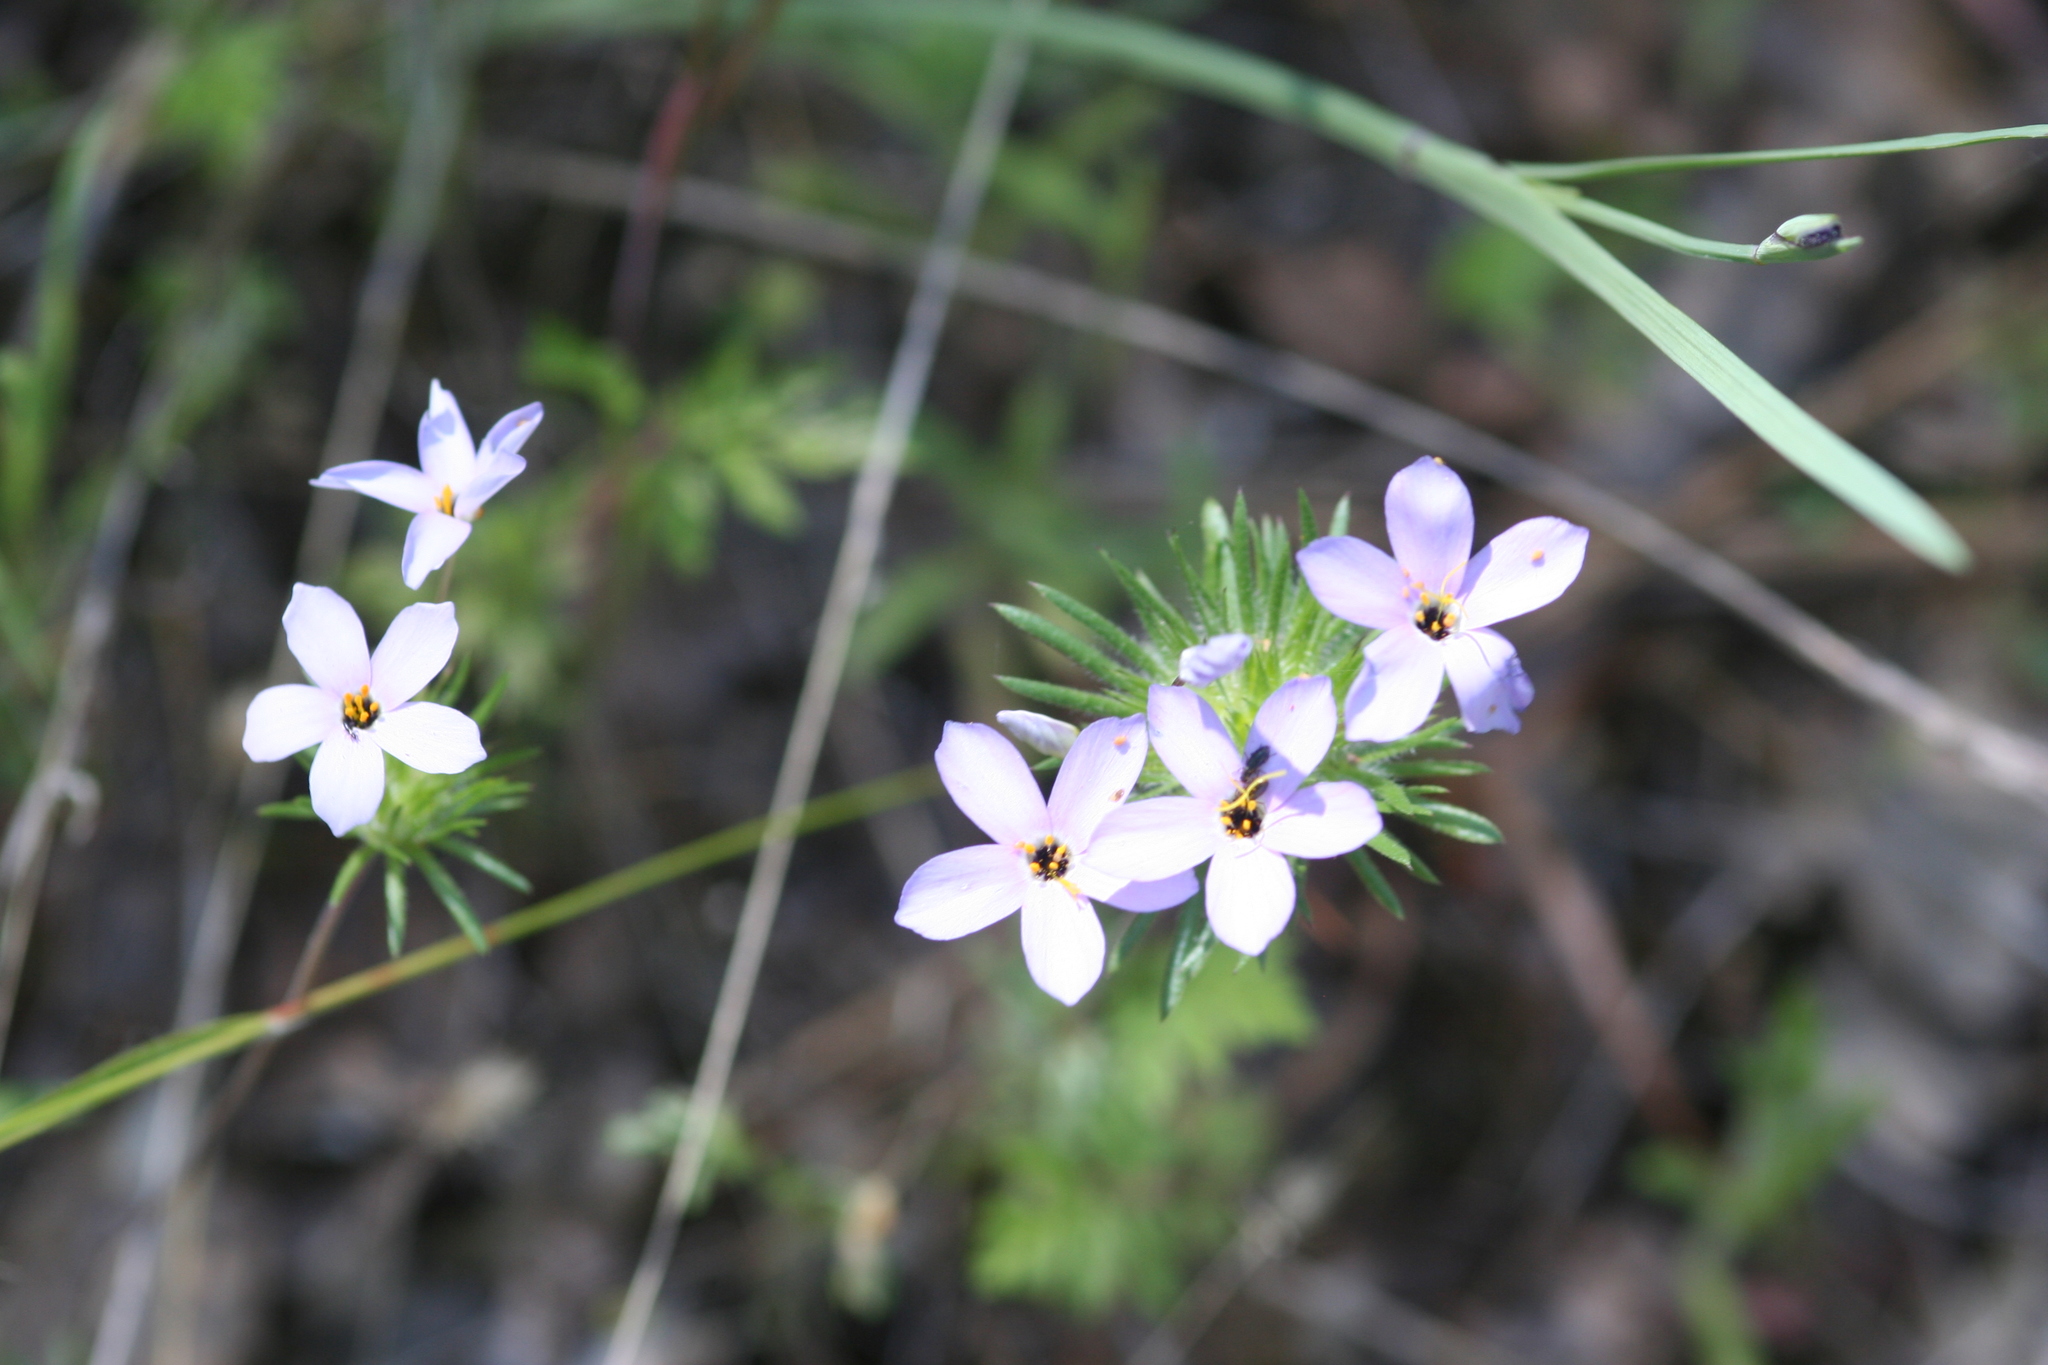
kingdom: Plantae
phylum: Tracheophyta
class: Magnoliopsida
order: Ericales
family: Polemoniaceae
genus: Leptosiphon
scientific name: Leptosiphon androsaceus
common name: False babystars
